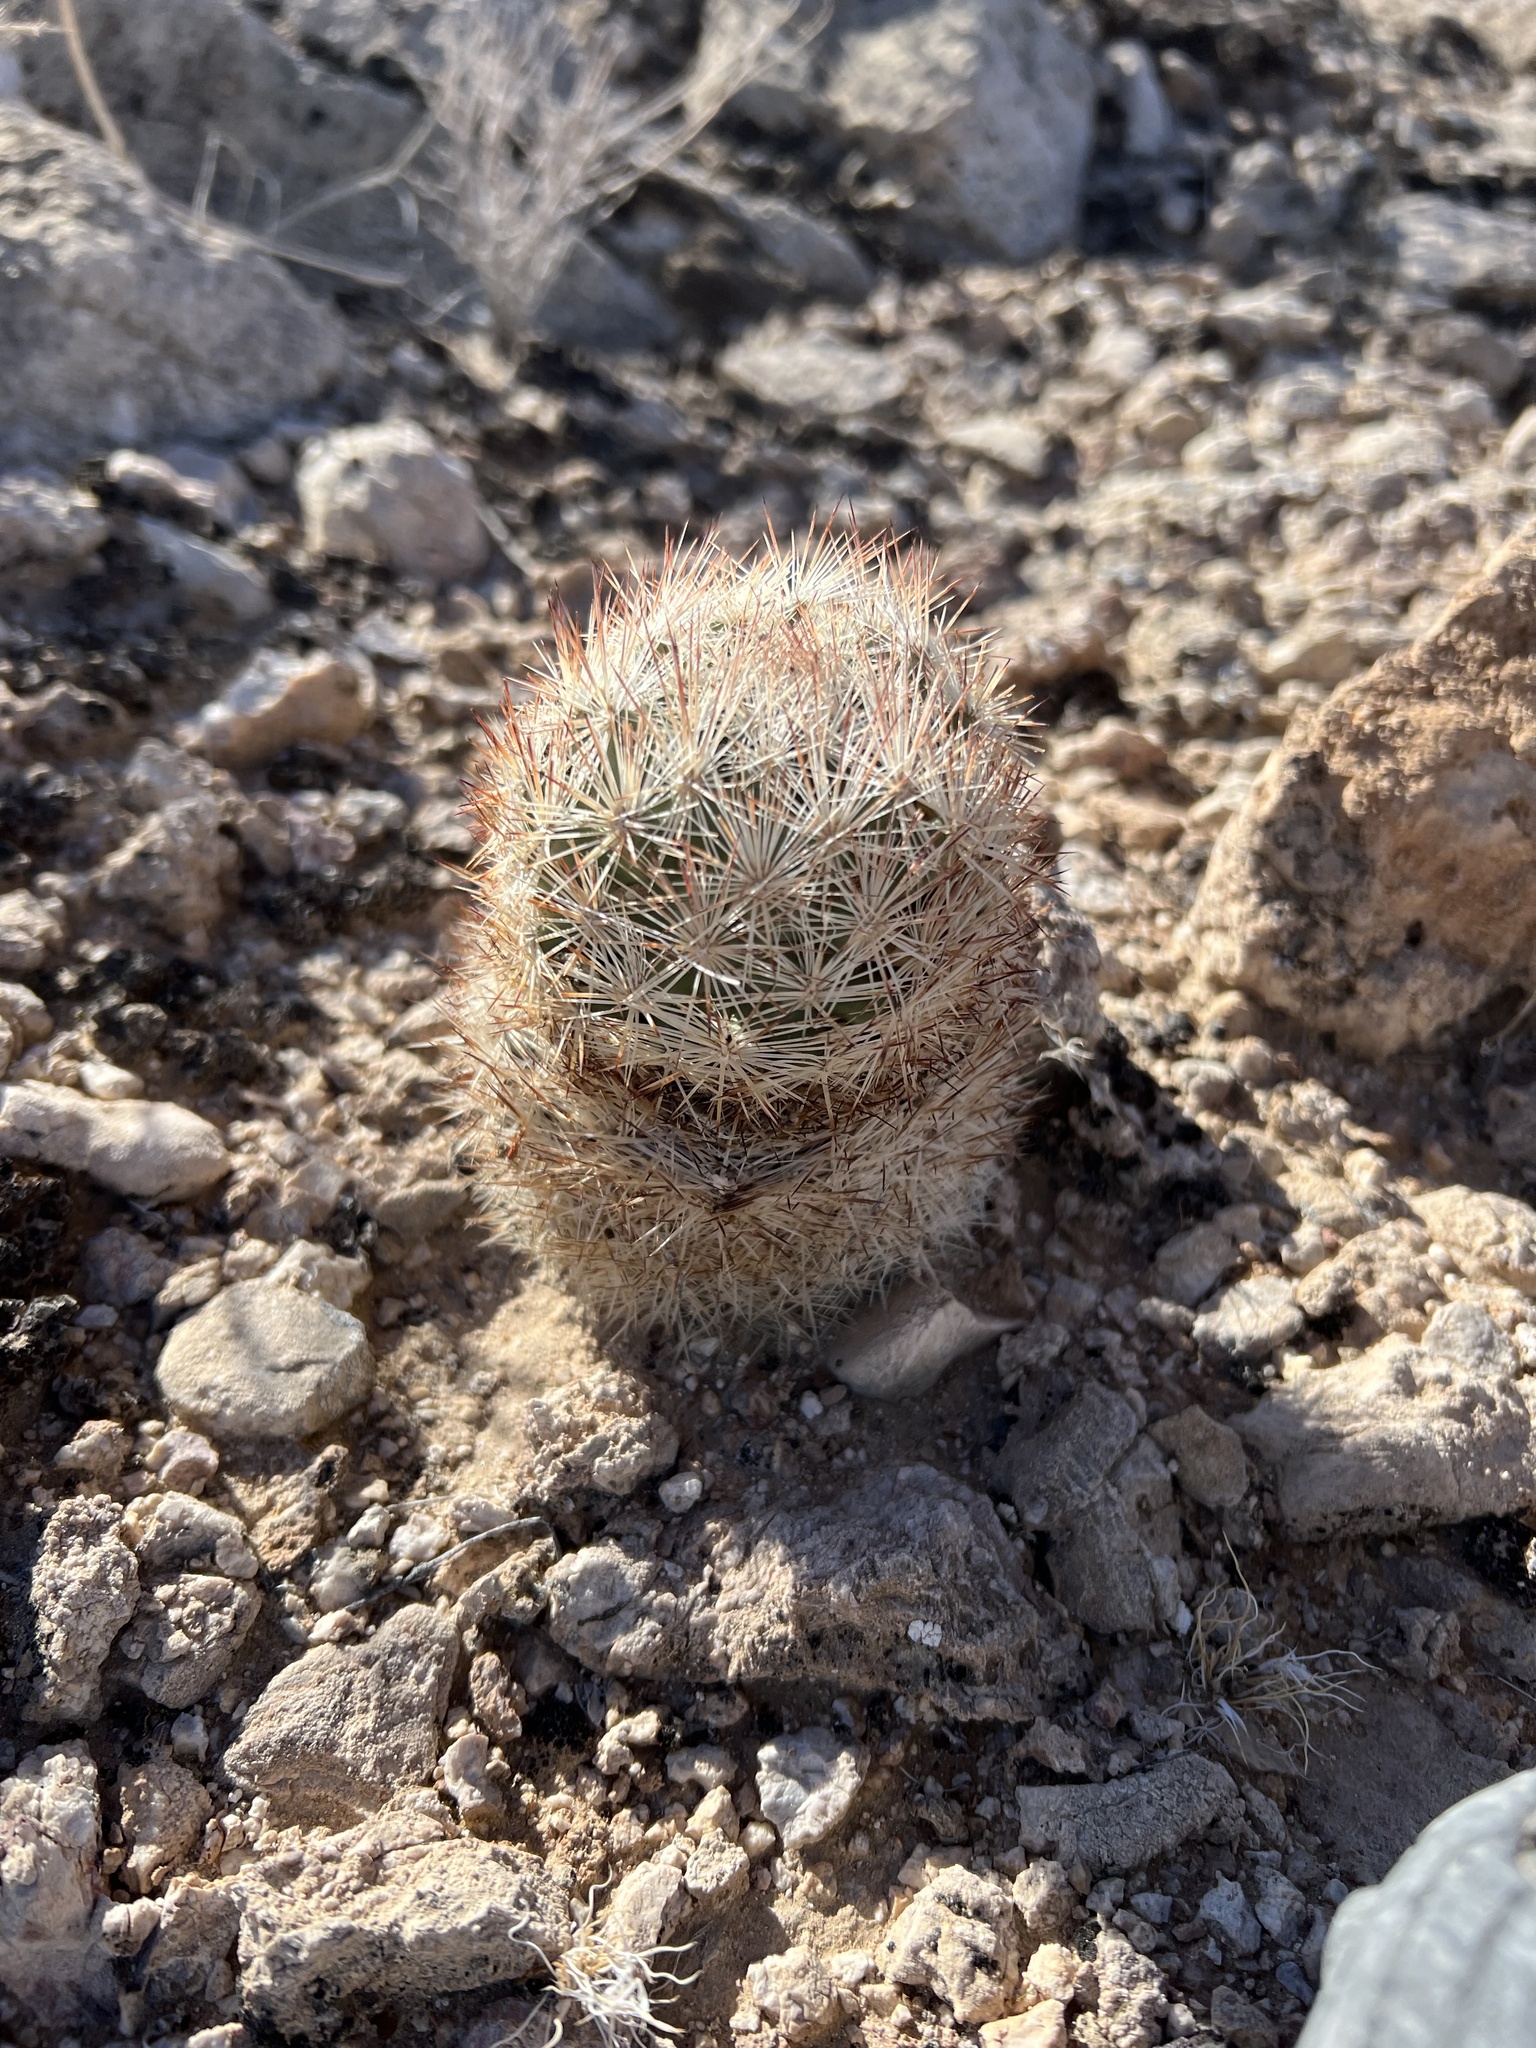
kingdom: Plantae
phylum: Tracheophyta
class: Magnoliopsida
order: Caryophyllales
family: Cactaceae
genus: Pelecyphora
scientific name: Pelecyphora dasyacantha
